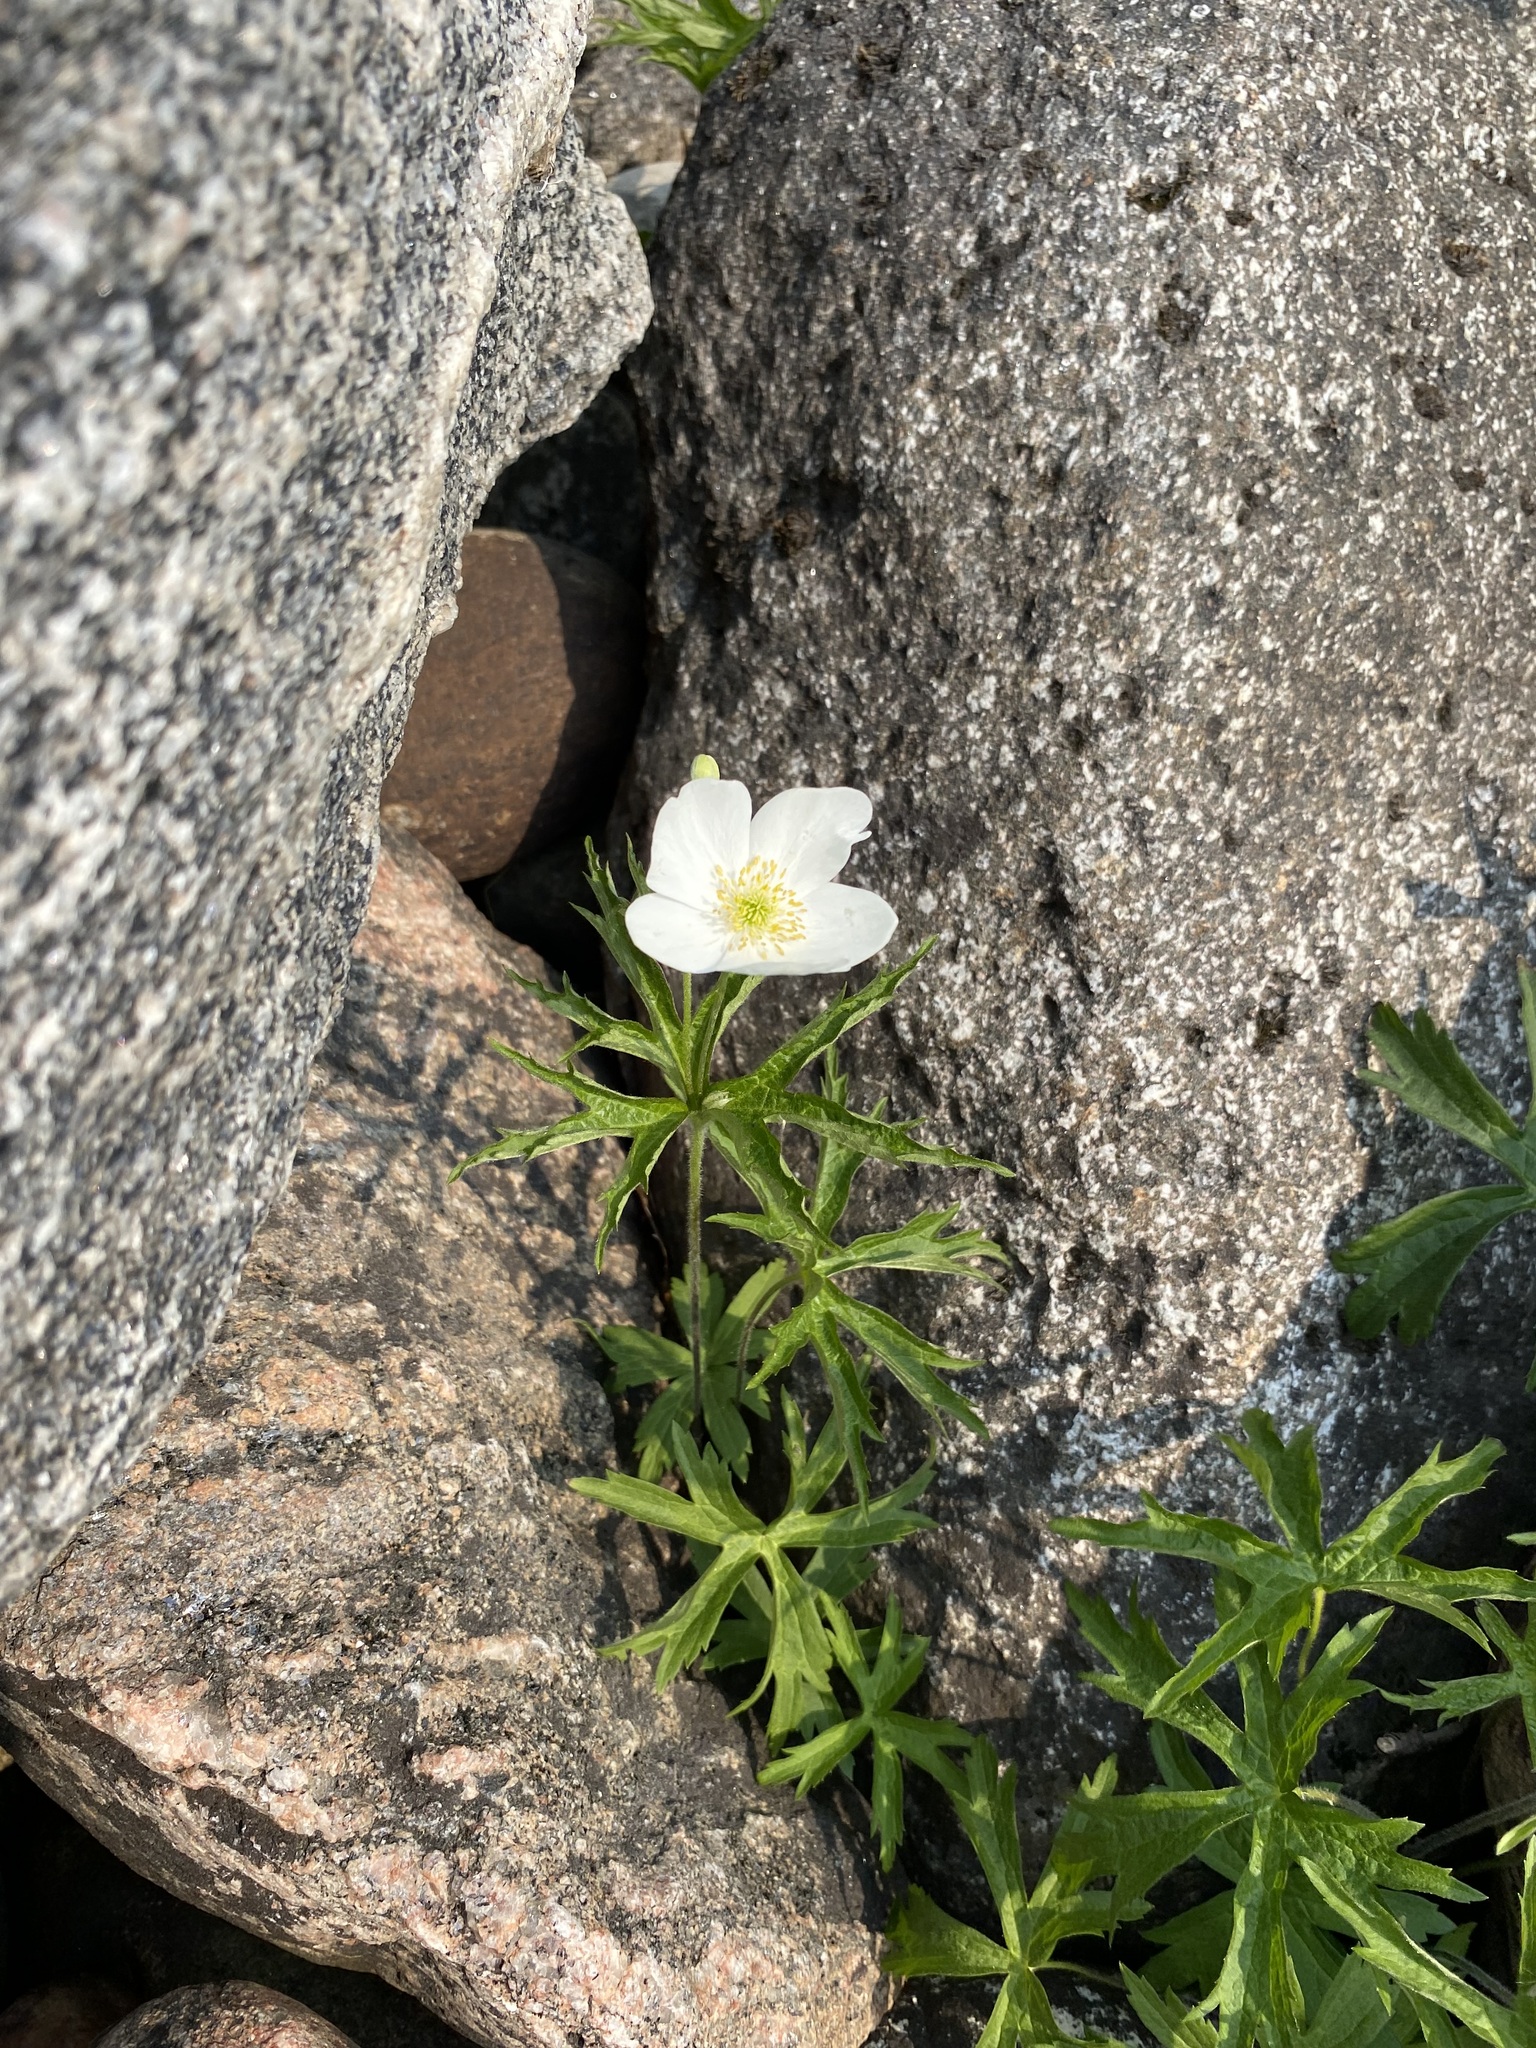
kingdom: Plantae
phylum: Tracheophyta
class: Magnoliopsida
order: Ranunculales
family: Ranunculaceae
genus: Anemonastrum
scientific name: Anemonastrum canadense
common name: Canada anemone
